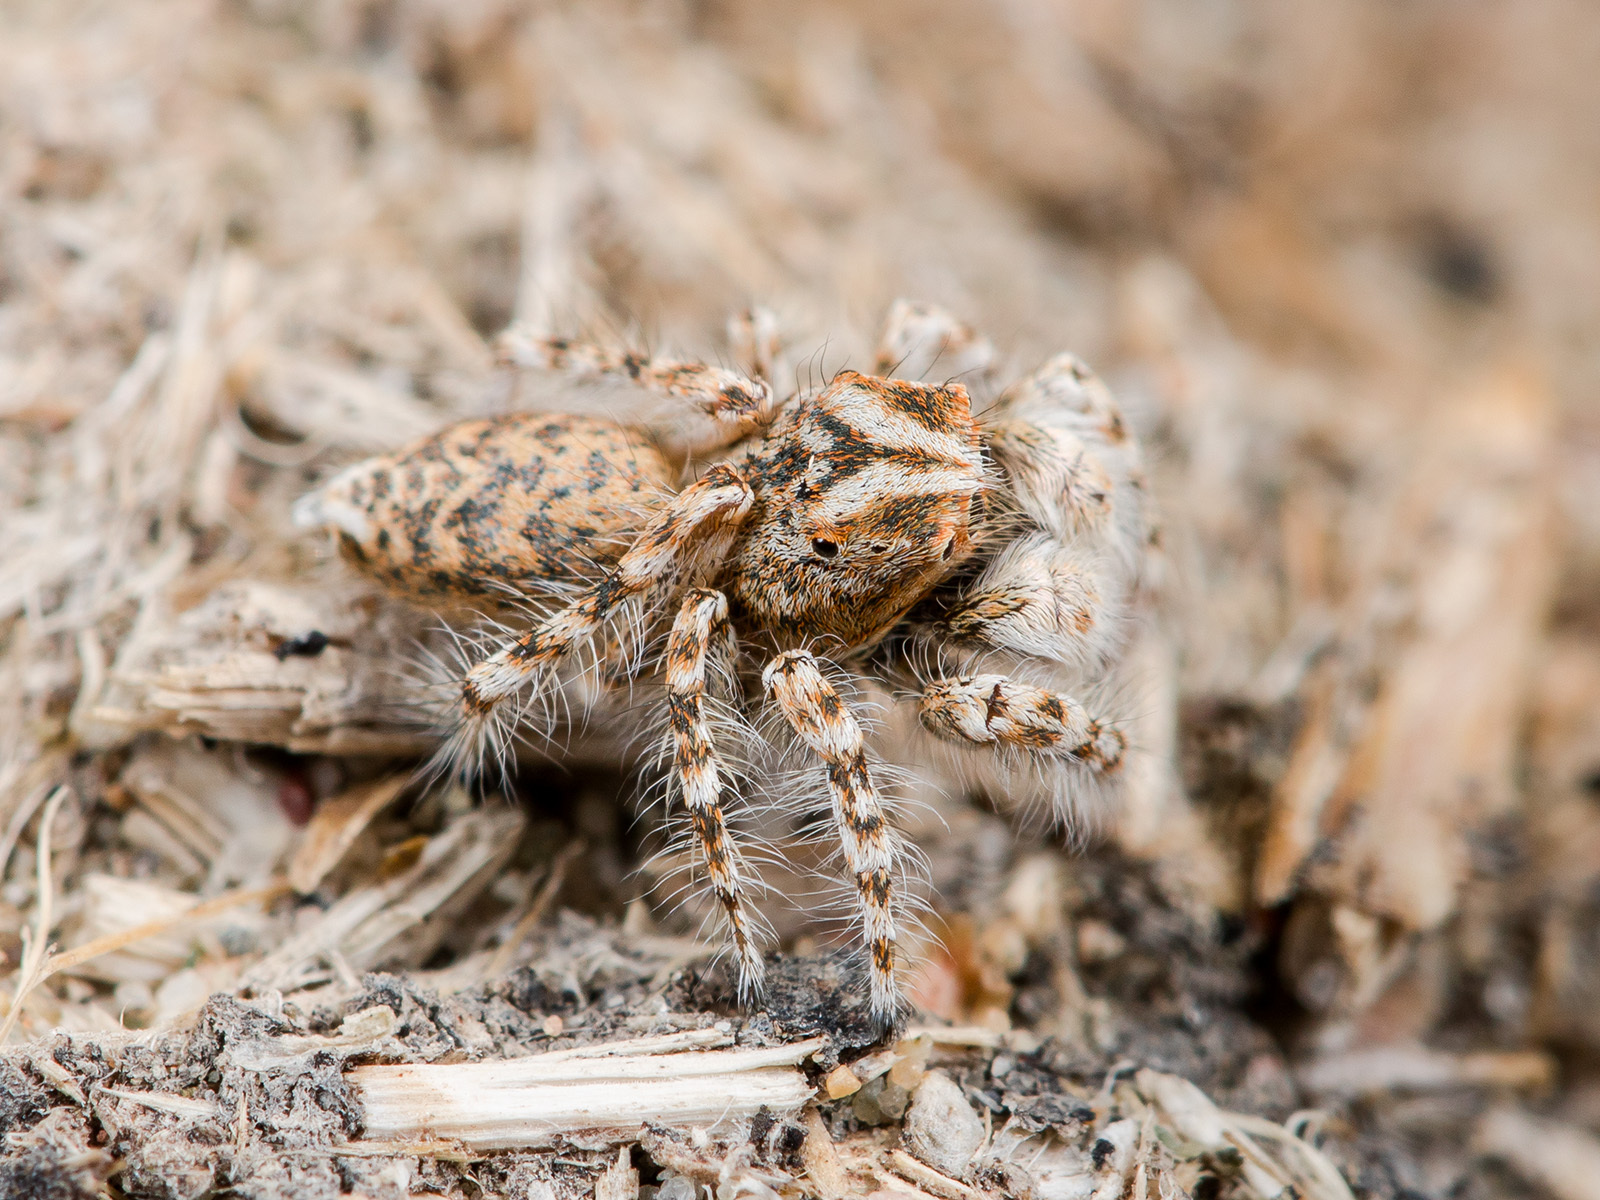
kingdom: Animalia
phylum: Arthropoda
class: Arachnida
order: Araneae
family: Salticidae
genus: Yllenus
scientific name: Yllenus uiguricus
